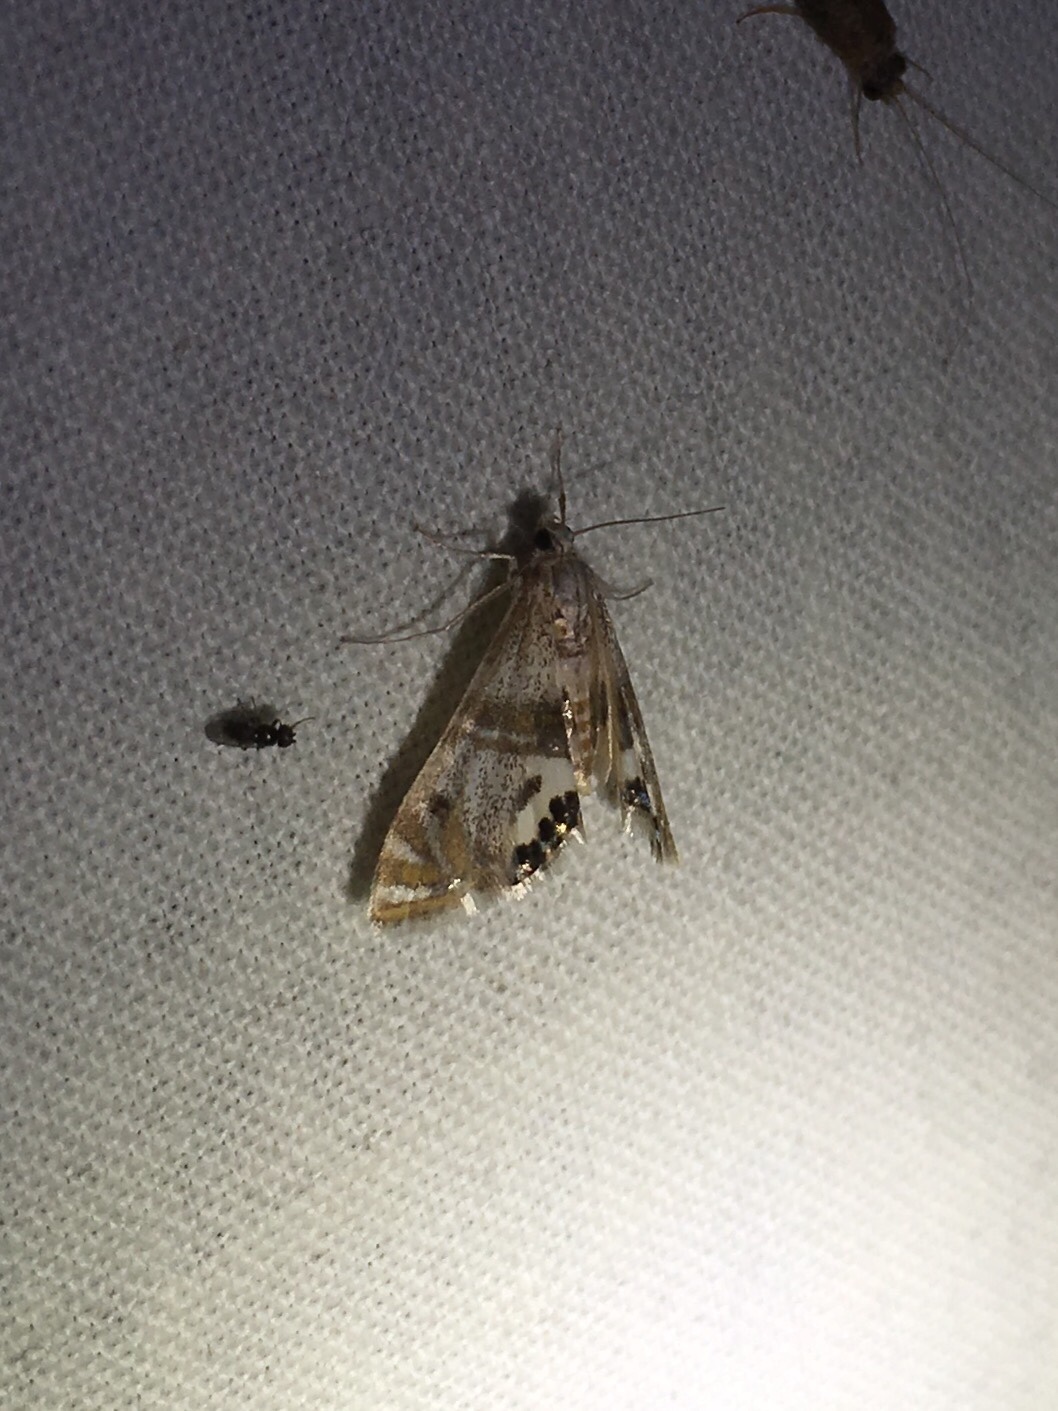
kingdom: Animalia
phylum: Arthropoda
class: Insecta
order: Lepidoptera
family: Crambidae
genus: Petrophila
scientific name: Petrophila bifascialis
